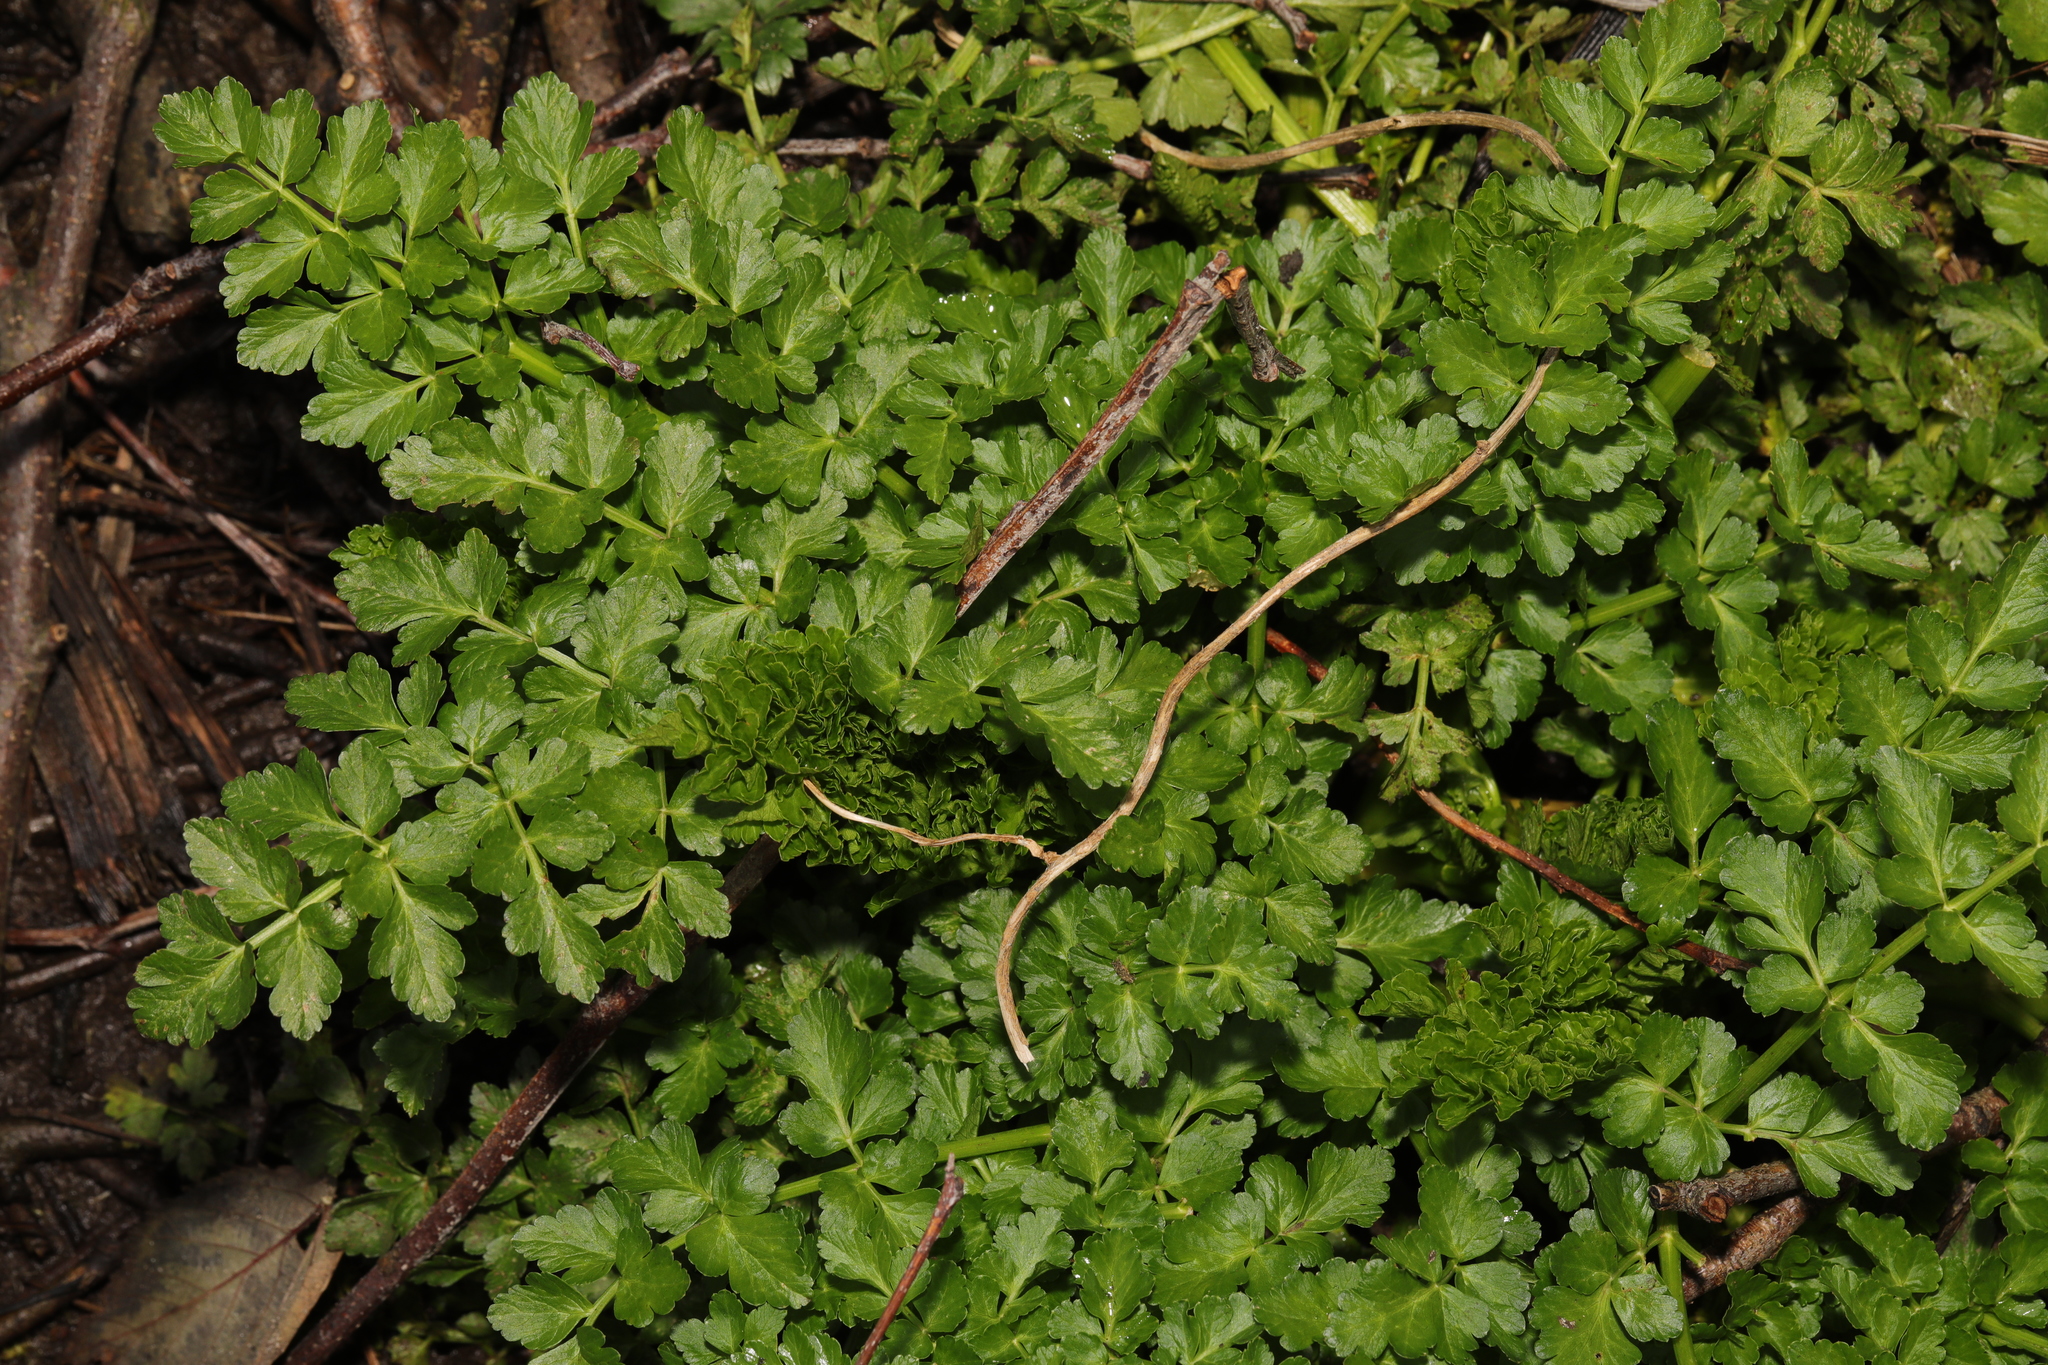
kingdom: Plantae
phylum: Tracheophyta
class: Magnoliopsida
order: Apiales
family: Apiaceae
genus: Oenanthe
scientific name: Oenanthe crocata
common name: Hemlock water-dropwort
